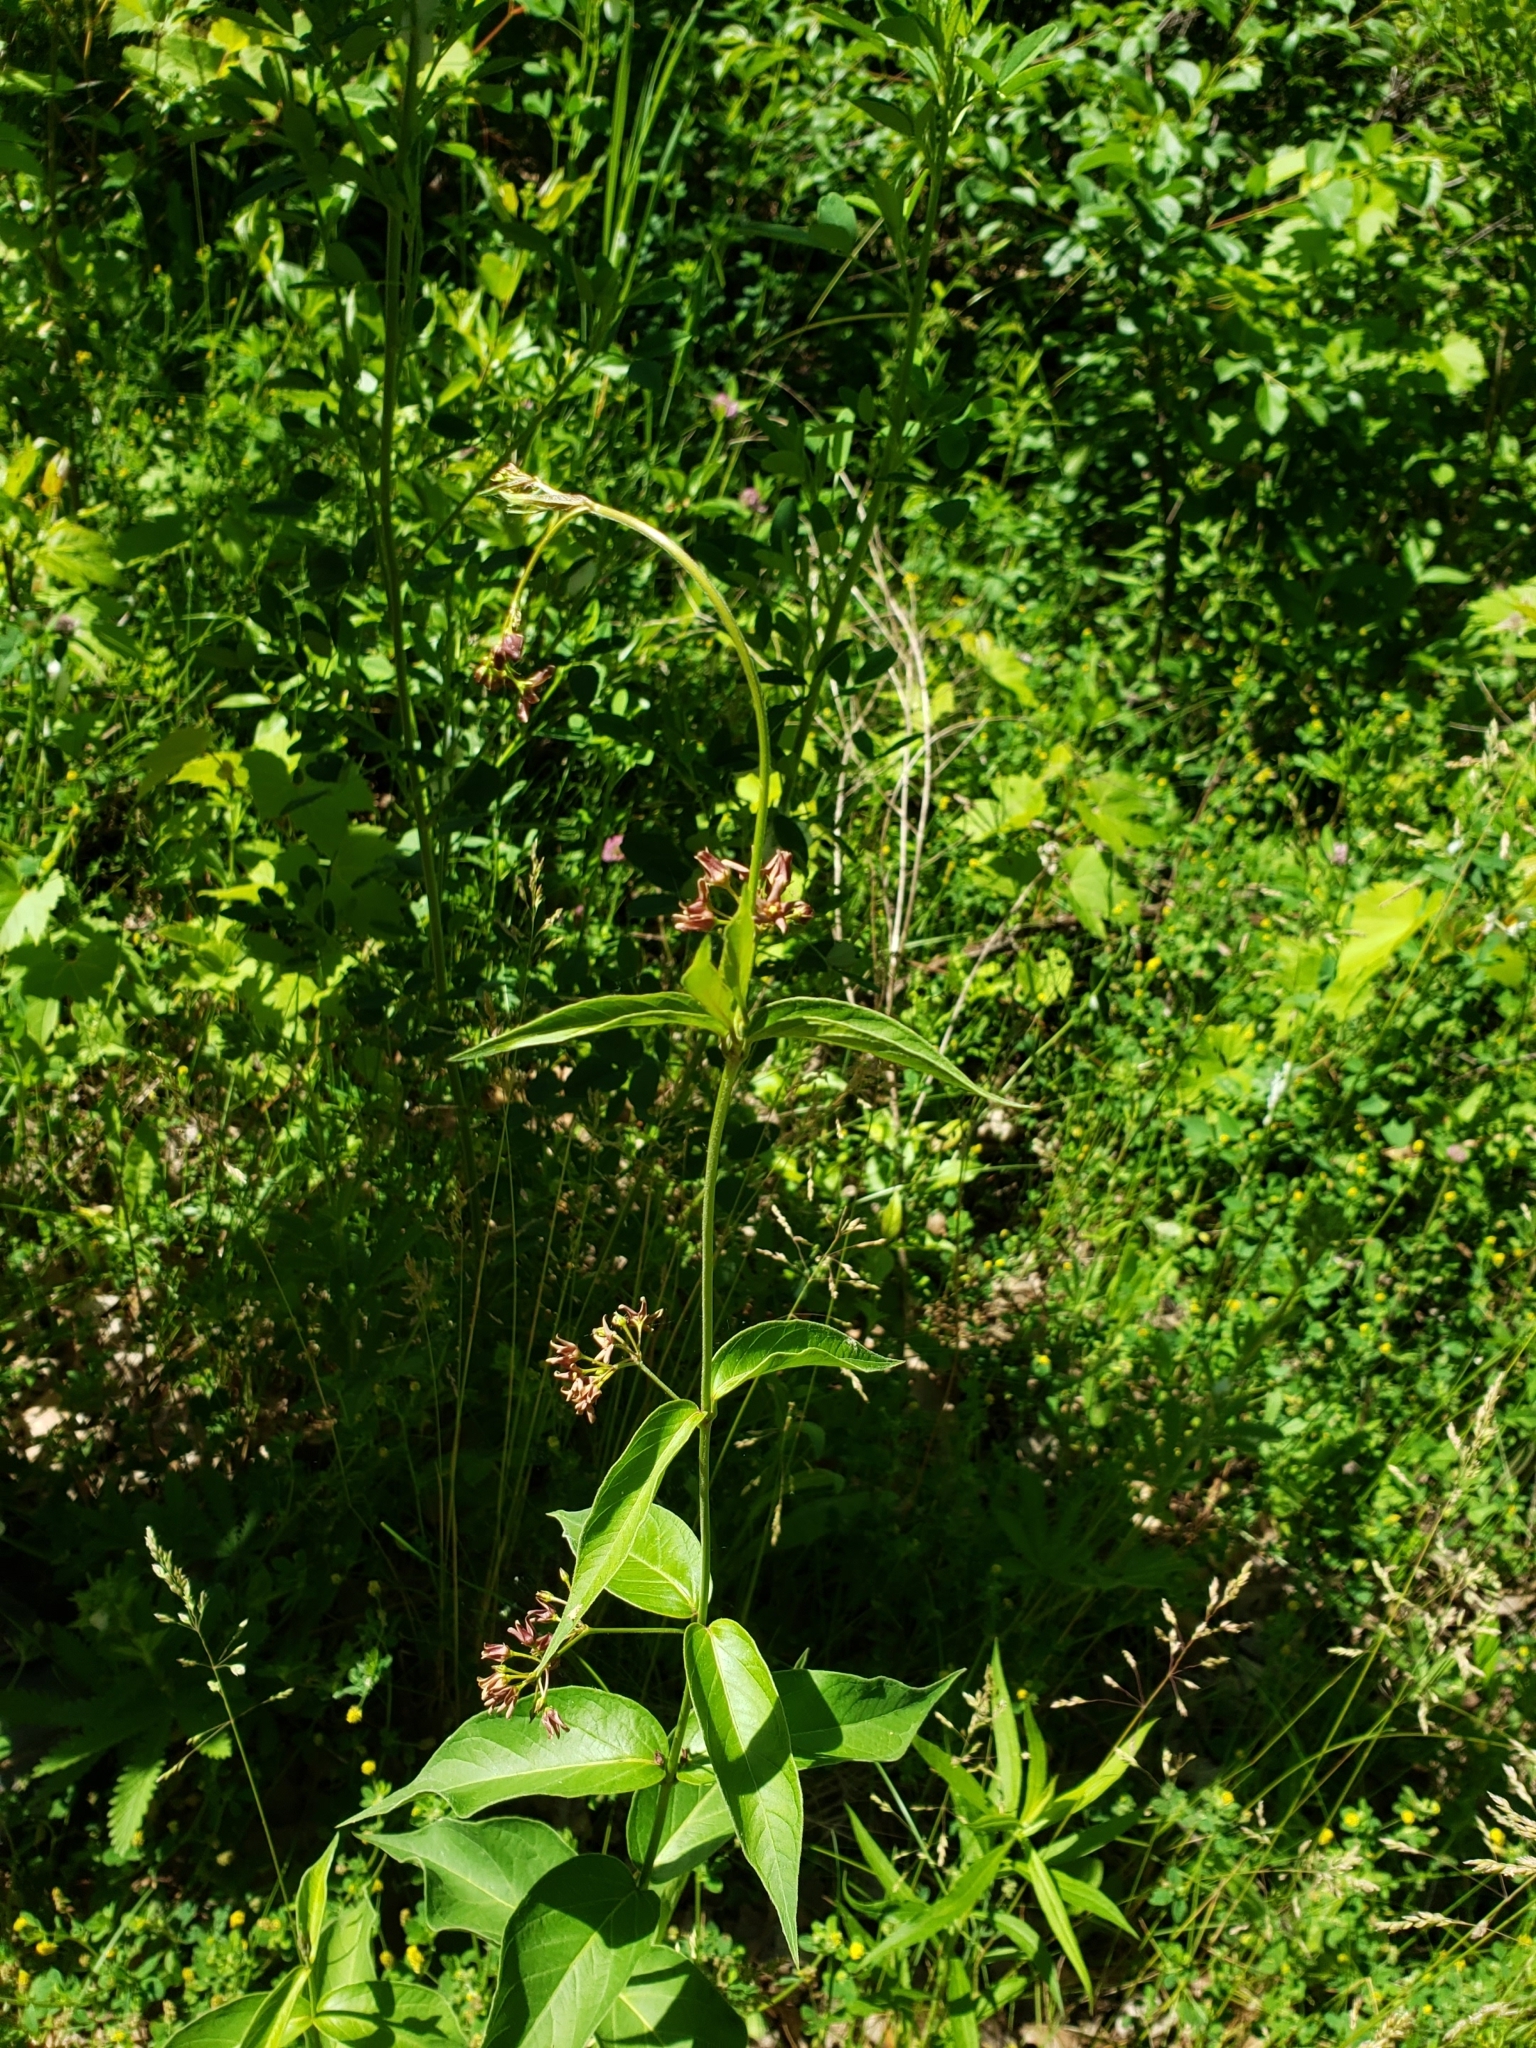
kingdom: Plantae
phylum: Tracheophyta
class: Magnoliopsida
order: Gentianales
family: Apocynaceae
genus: Vincetoxicum
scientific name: Vincetoxicum rossicum
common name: Dog-strangling vine
